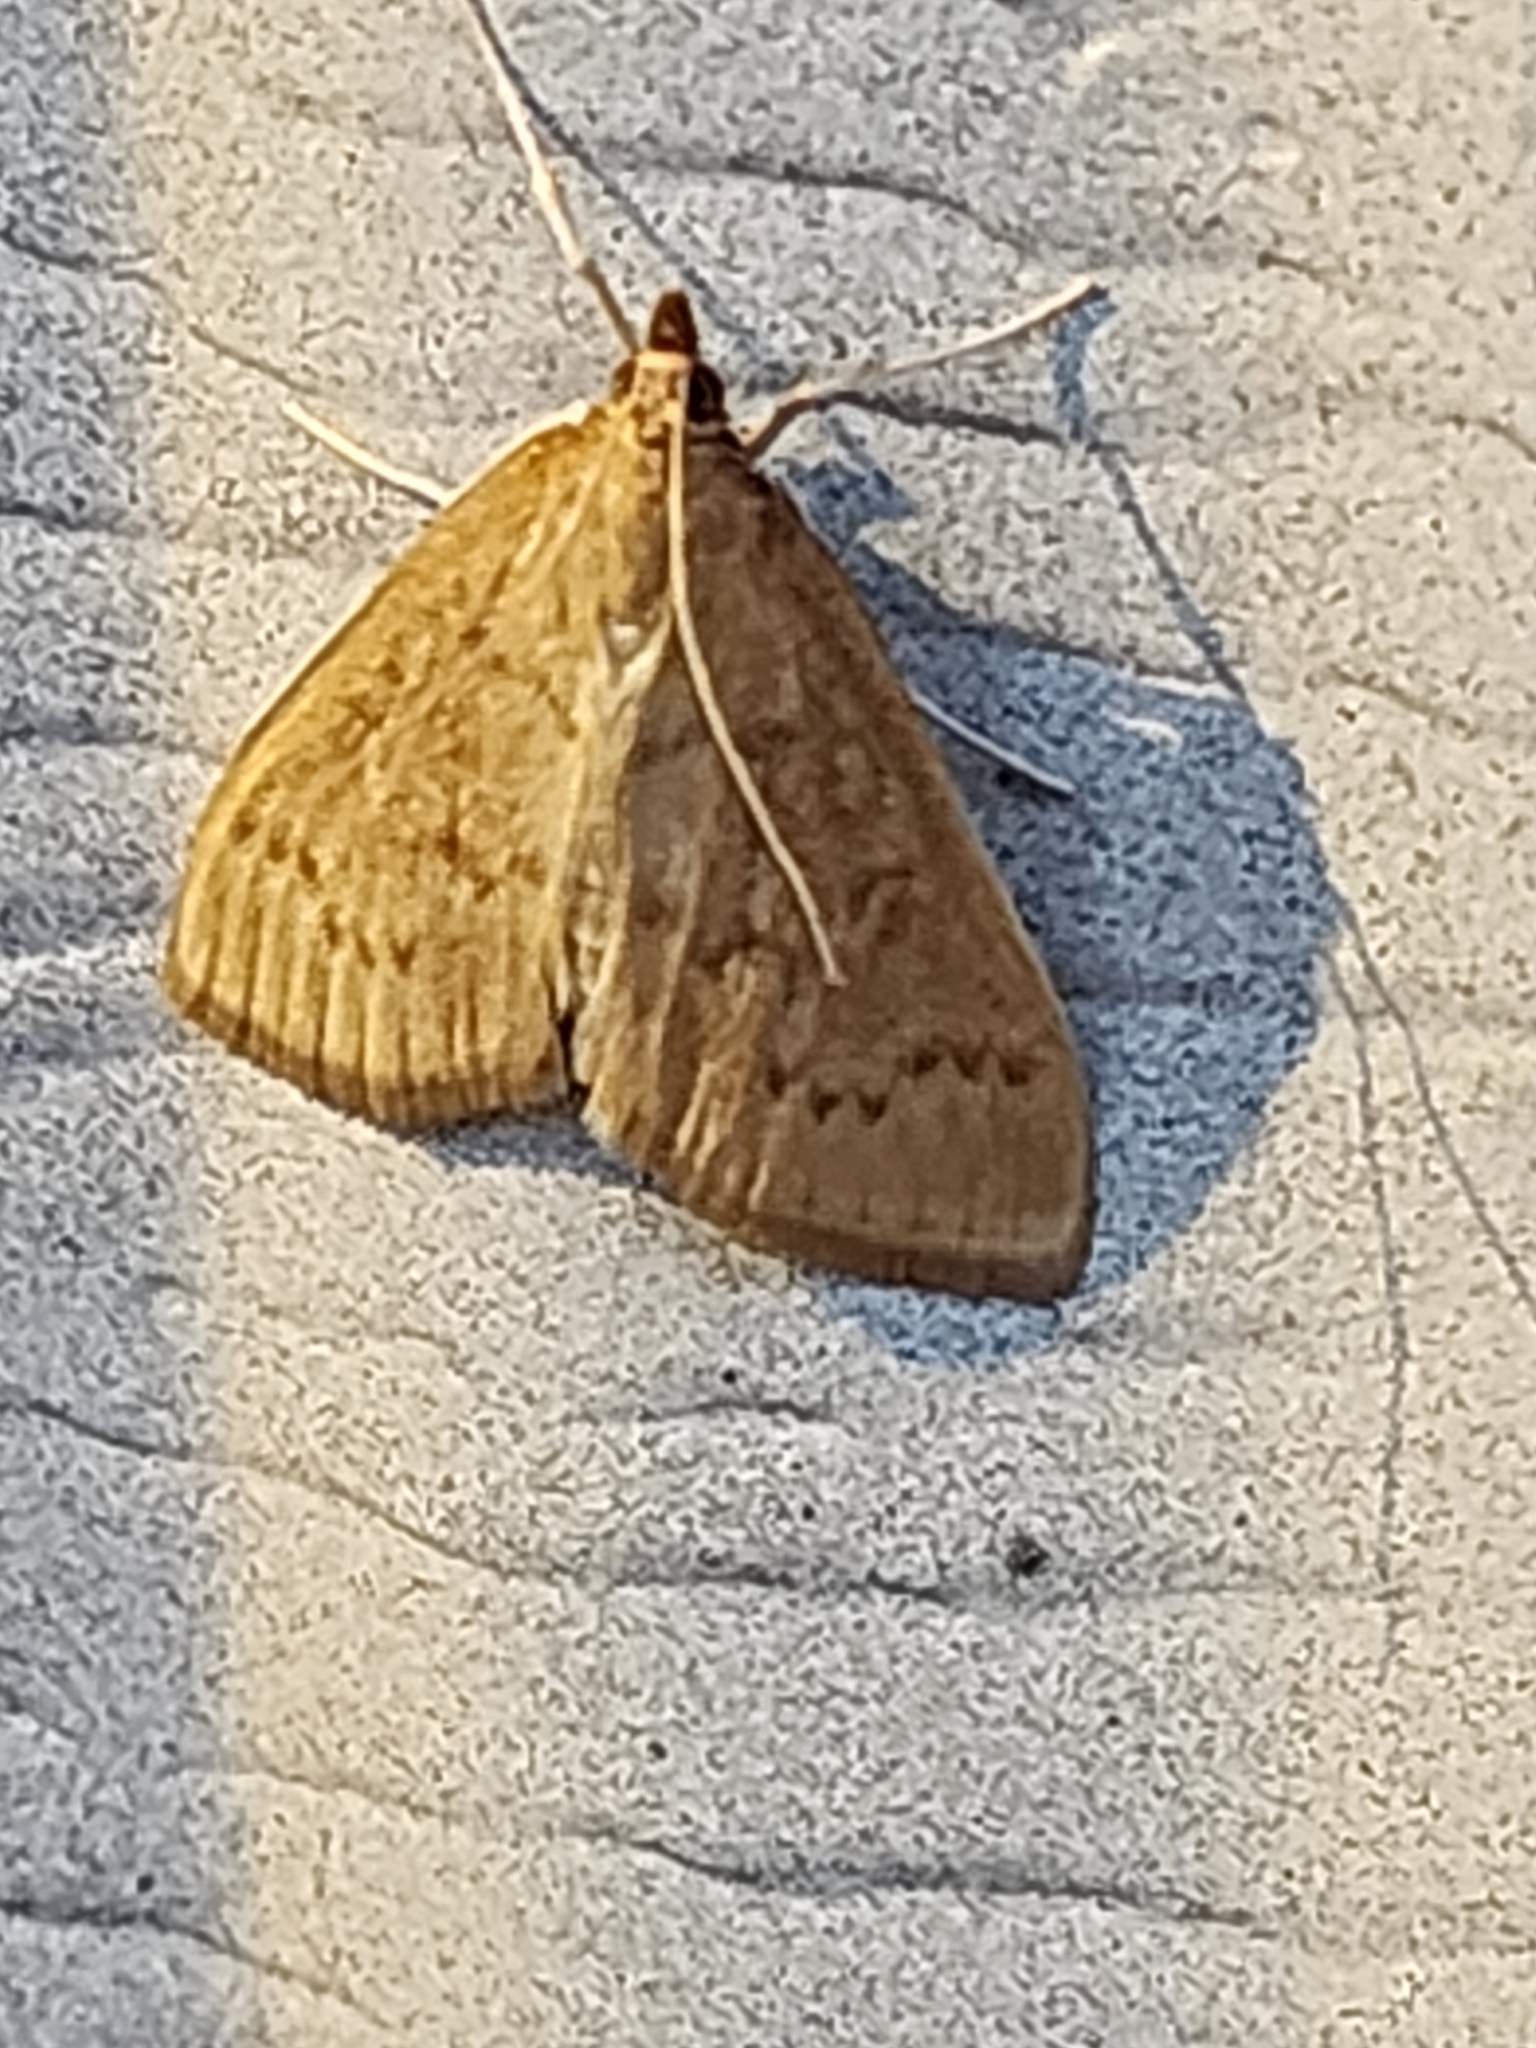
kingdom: Animalia
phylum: Arthropoda
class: Insecta
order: Lepidoptera
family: Crambidae
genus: Anania
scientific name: Anania Framinghamia helvalis
